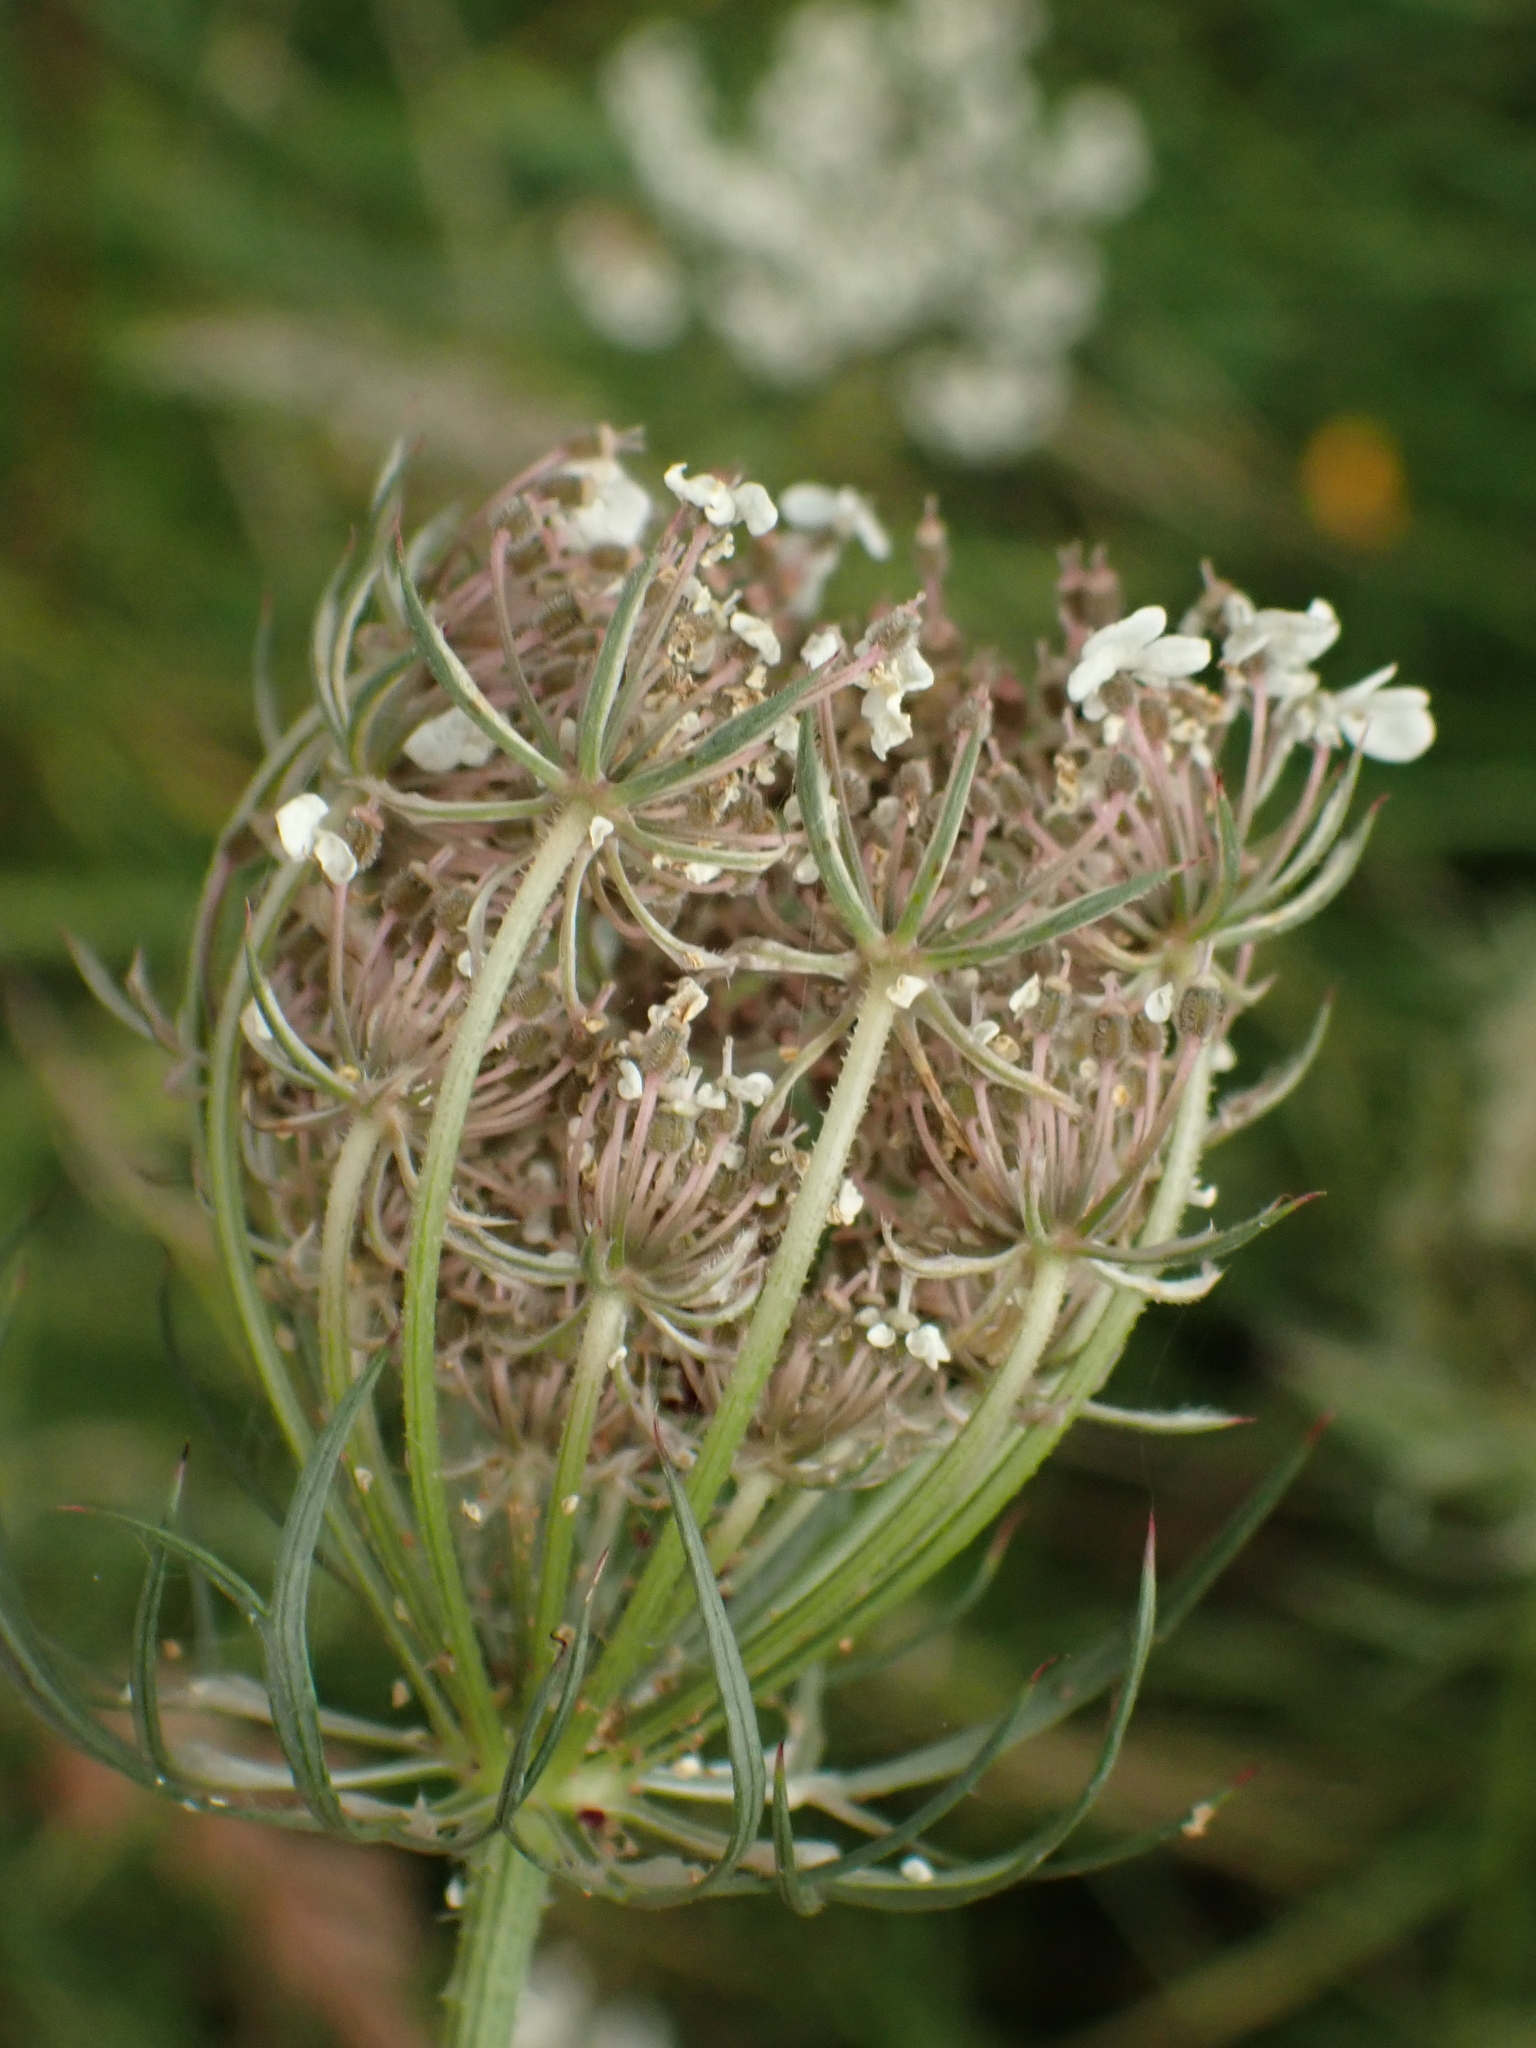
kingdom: Plantae
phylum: Tracheophyta
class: Magnoliopsida
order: Apiales
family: Apiaceae
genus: Daucus
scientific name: Daucus carota
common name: Wild carrot
